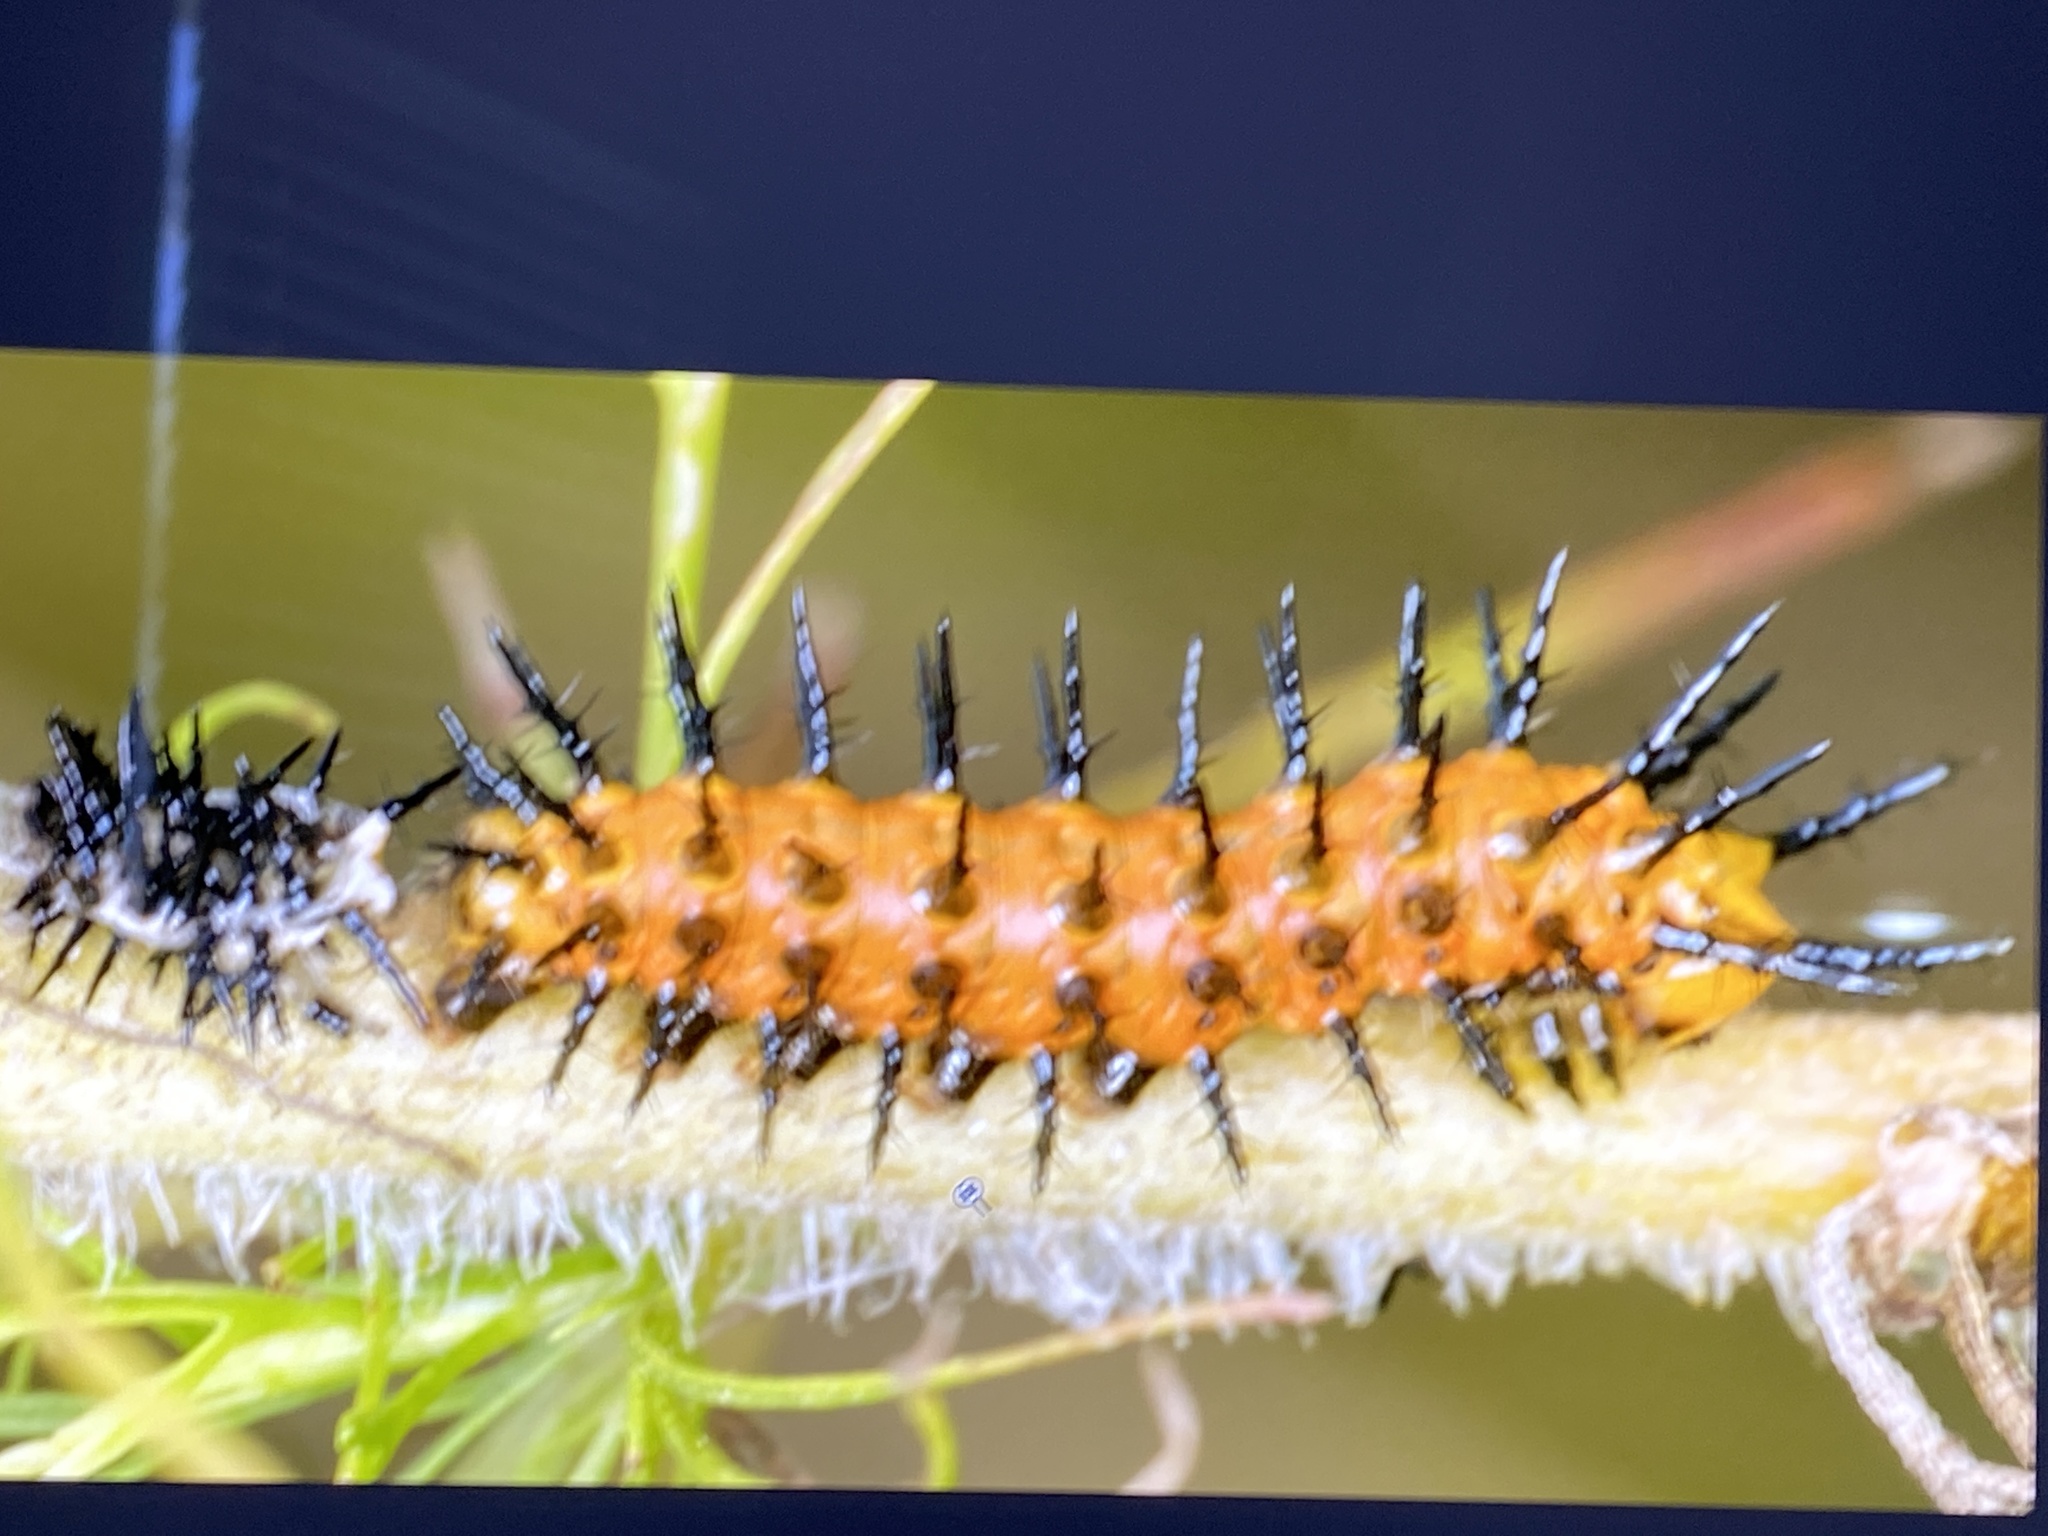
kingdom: Animalia
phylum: Arthropoda
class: Insecta
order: Lepidoptera
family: Nymphalidae
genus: Dione
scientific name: Dione vanillae
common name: Gulf fritillary
